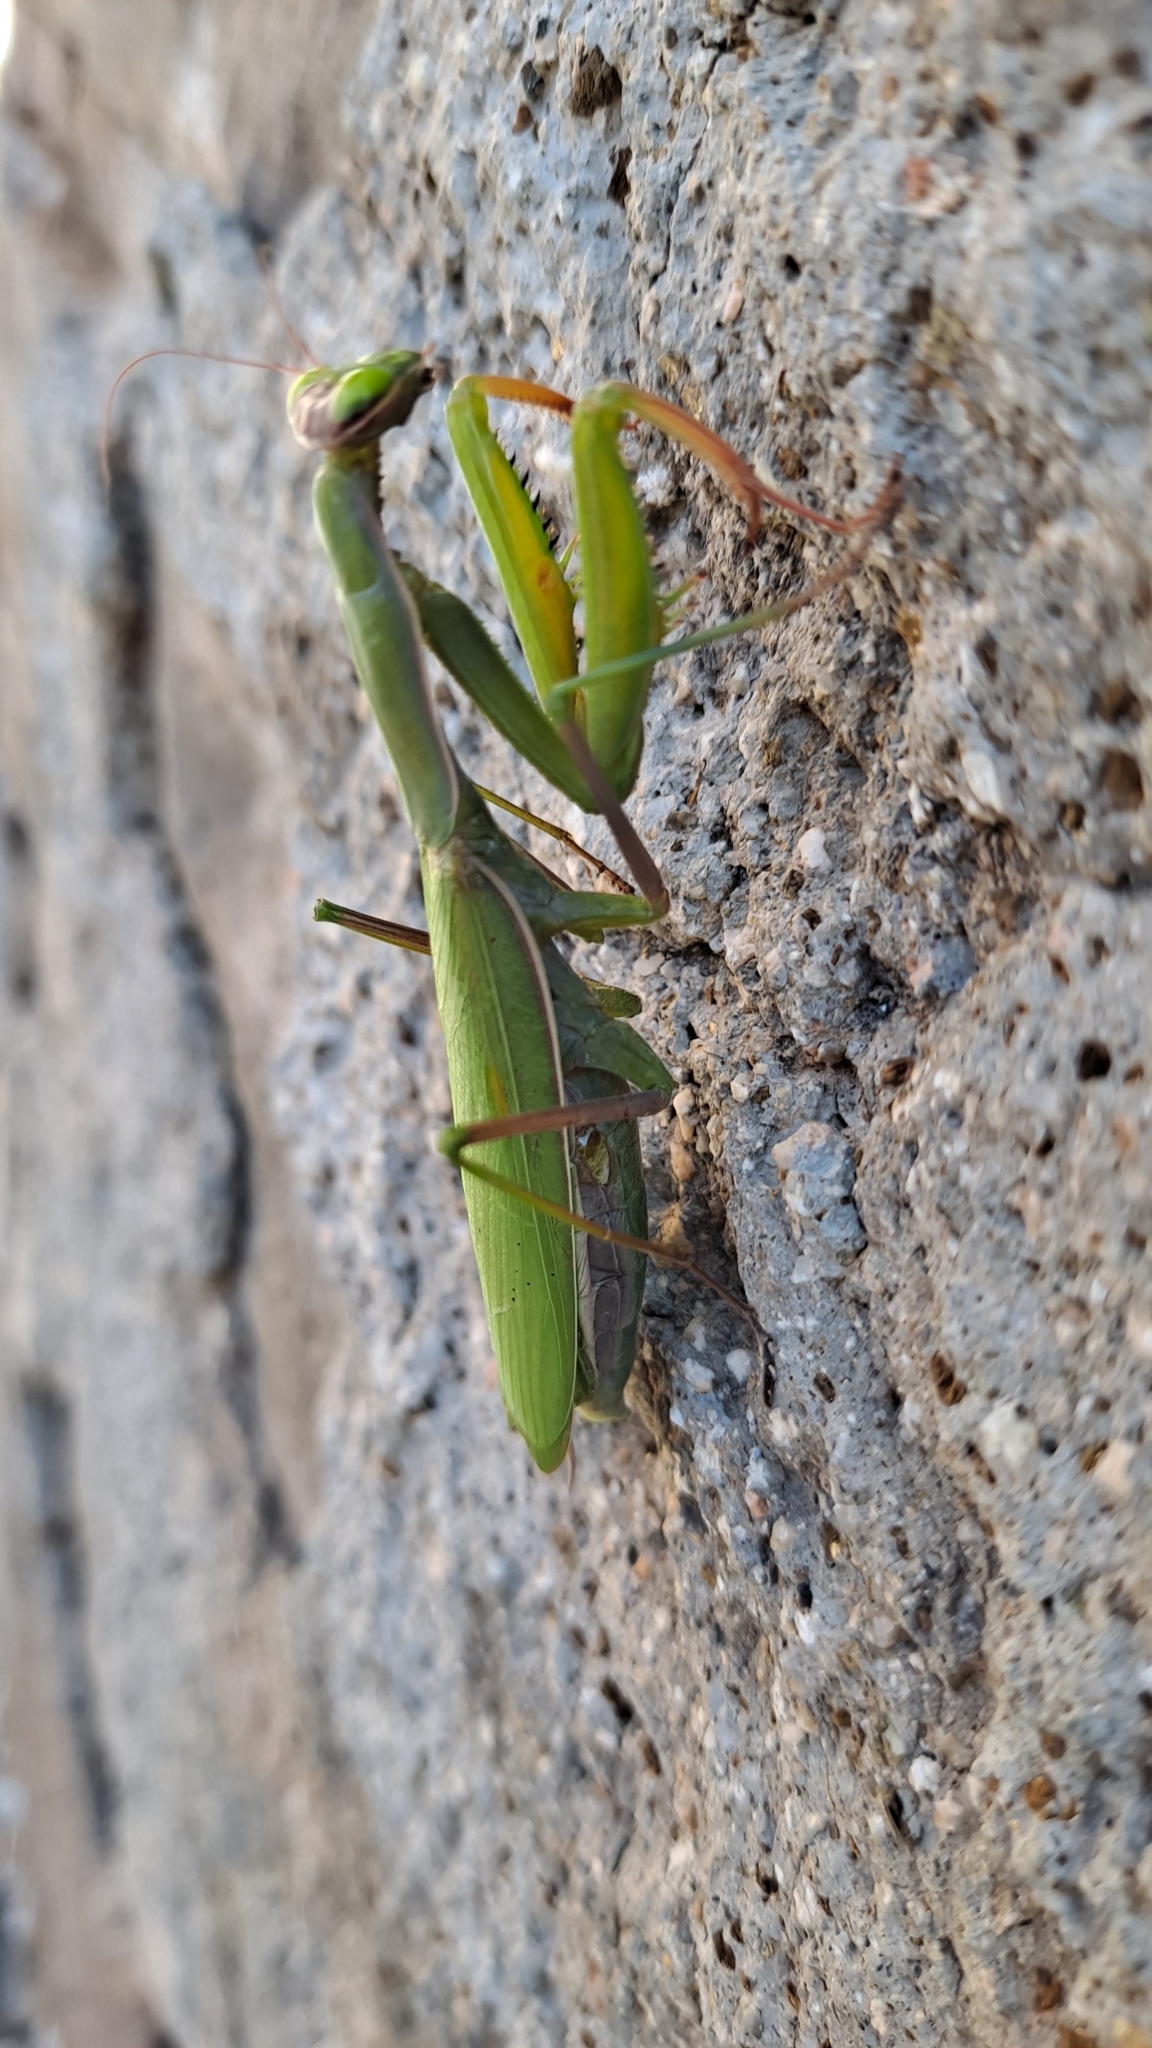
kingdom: Animalia
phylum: Arthropoda
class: Insecta
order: Mantodea
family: Mantidae
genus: Mantis
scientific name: Mantis religiosa
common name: Praying mantis
